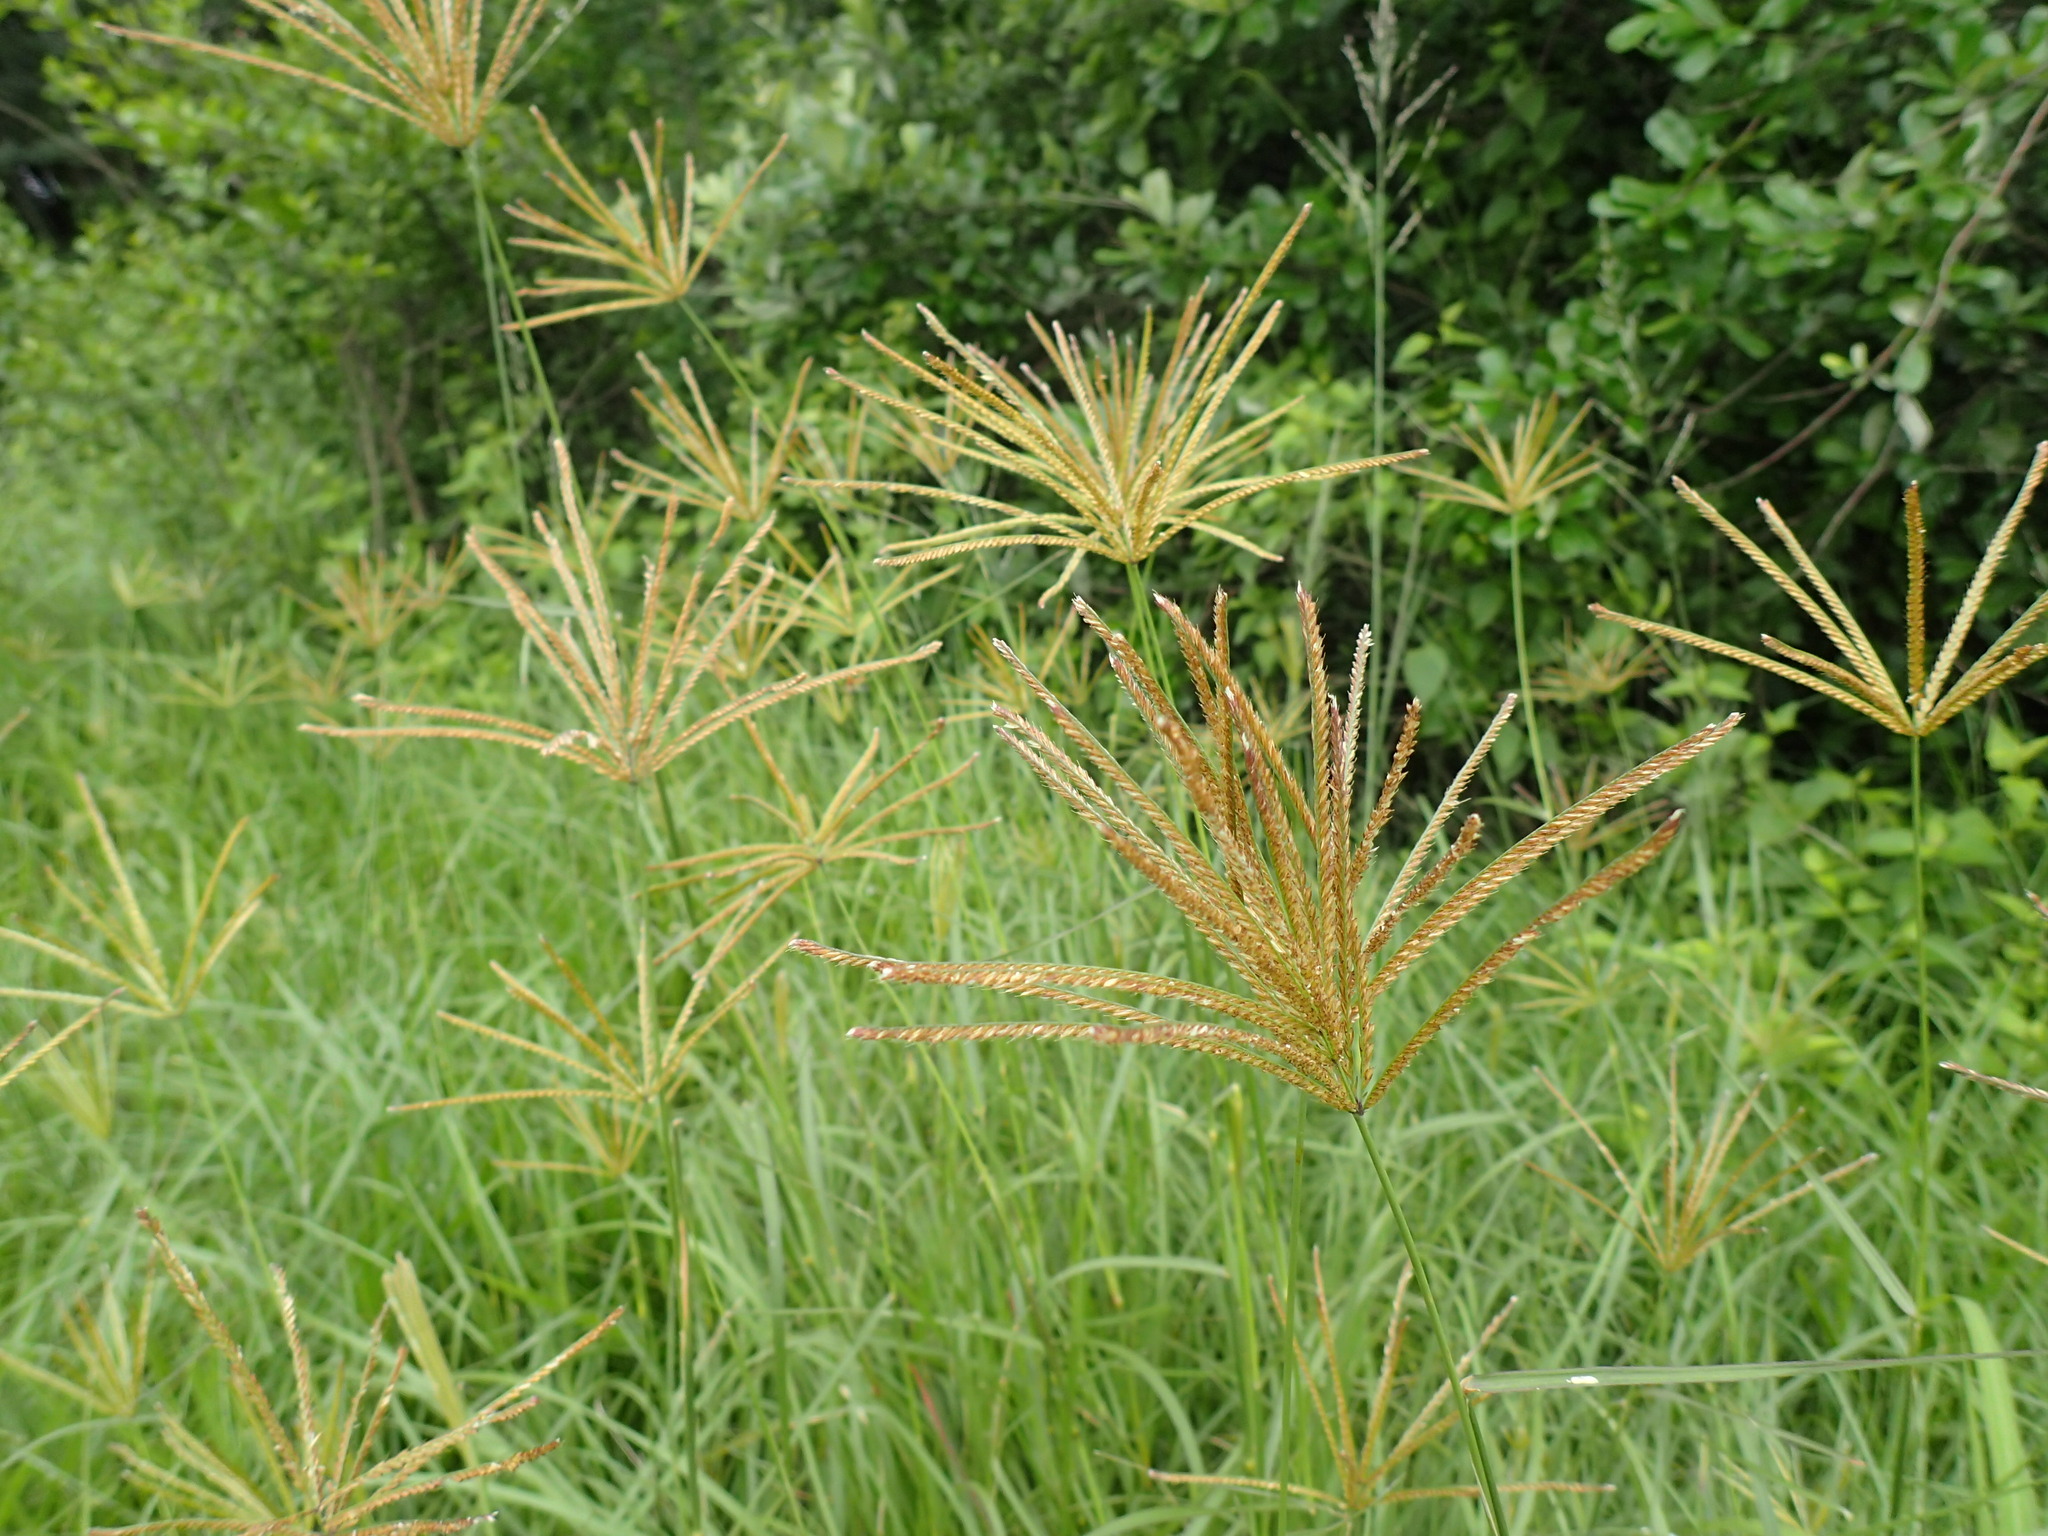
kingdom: Plantae
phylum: Tracheophyta
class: Liliopsida
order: Poales
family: Poaceae
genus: Chloris
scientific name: Chloris gayana
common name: Rhodes grass
